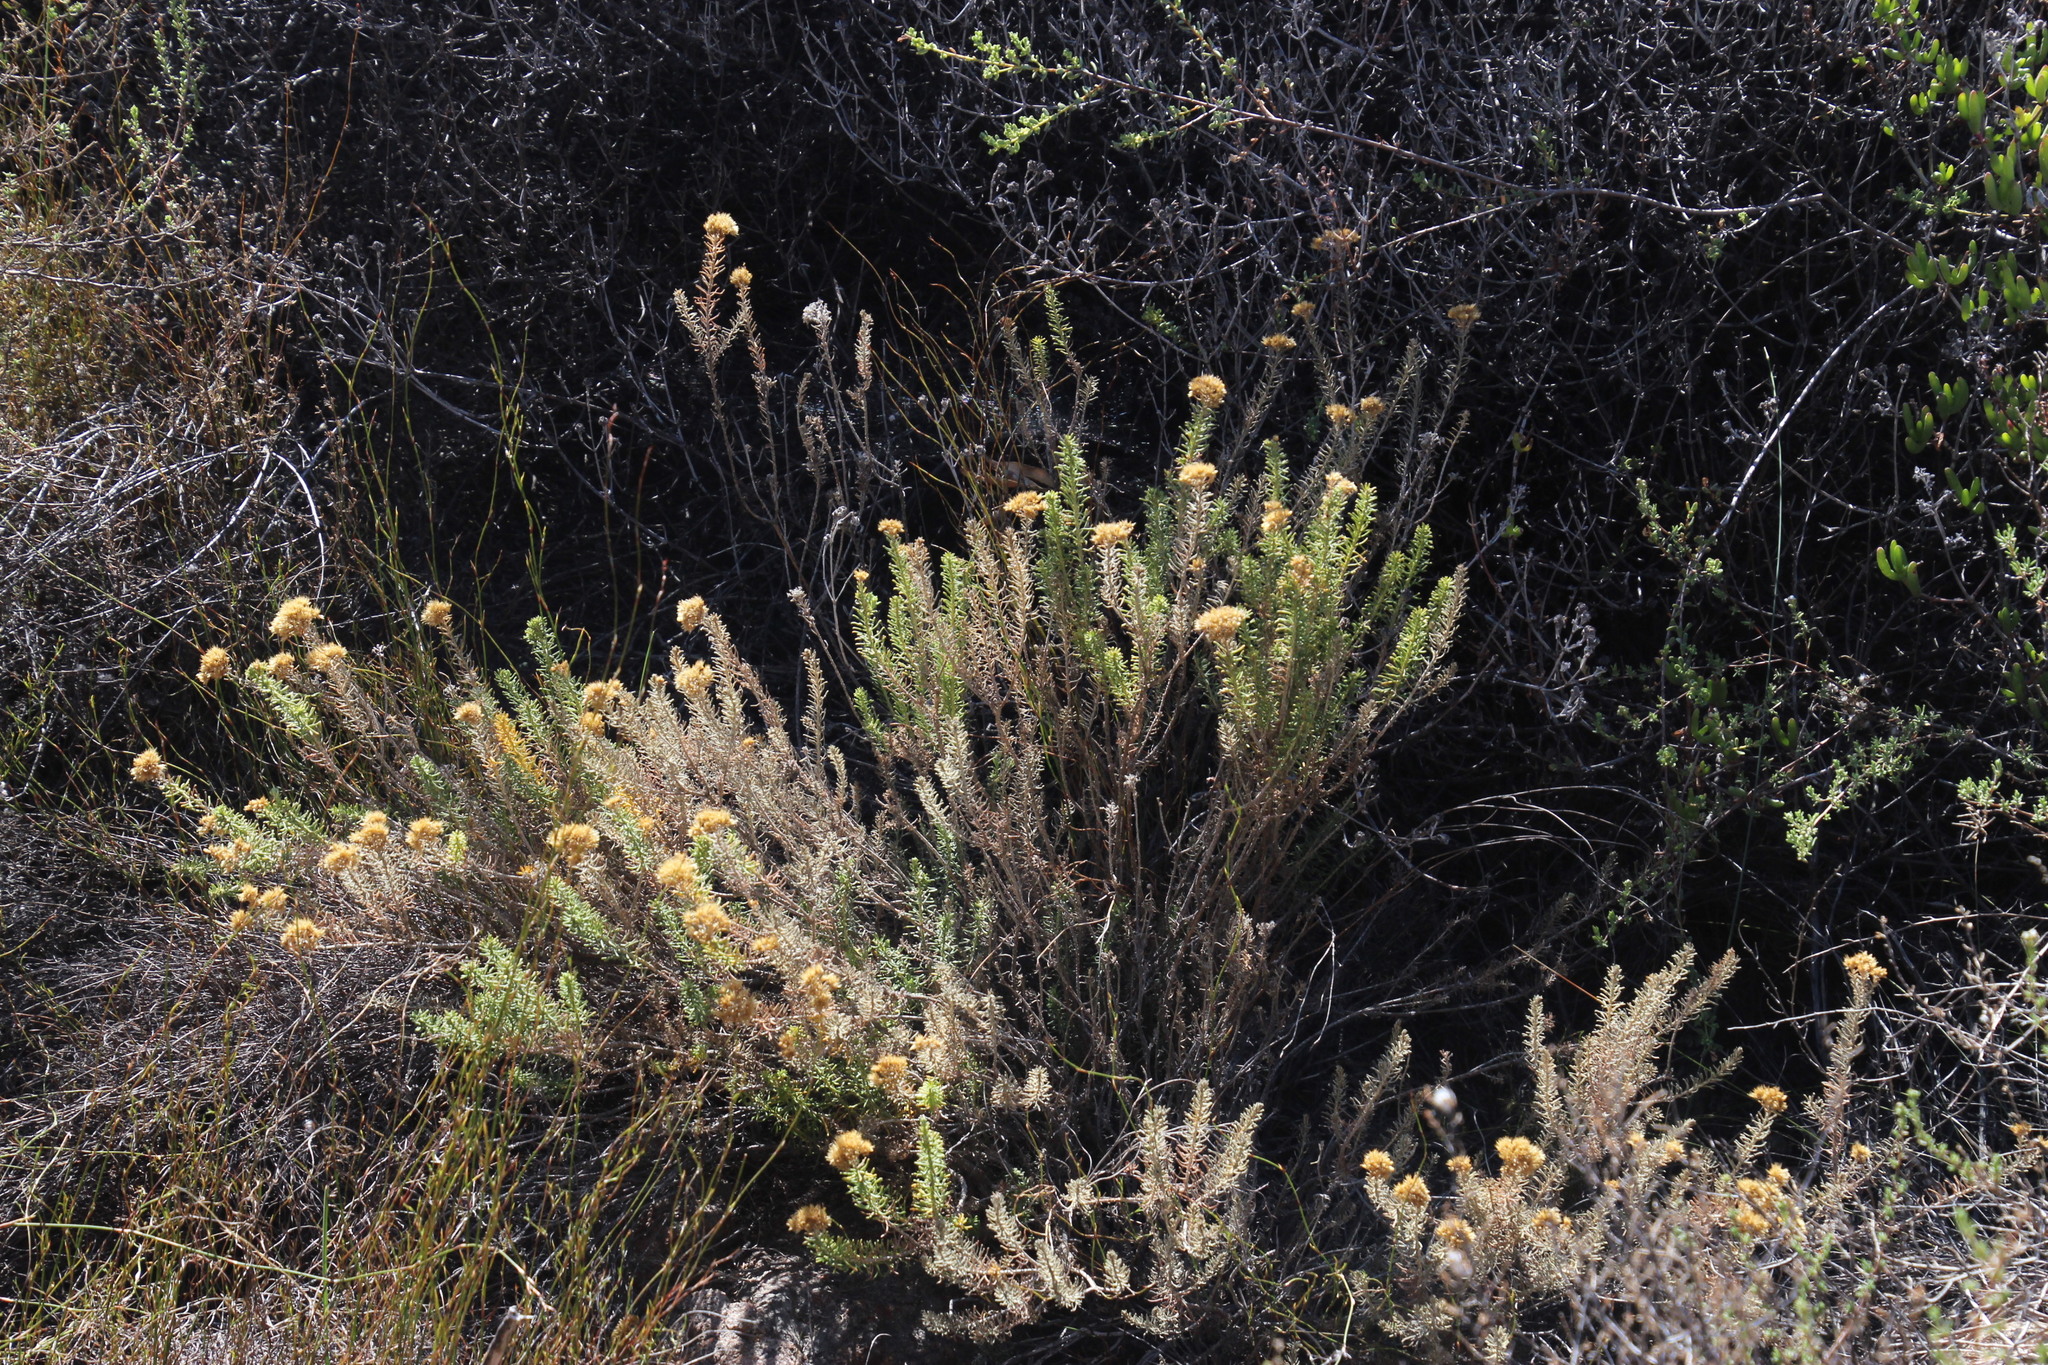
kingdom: Plantae
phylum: Tracheophyta
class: Magnoliopsida
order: Asterales
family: Asteraceae
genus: Helichrysum
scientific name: Helichrysum hamulosum
